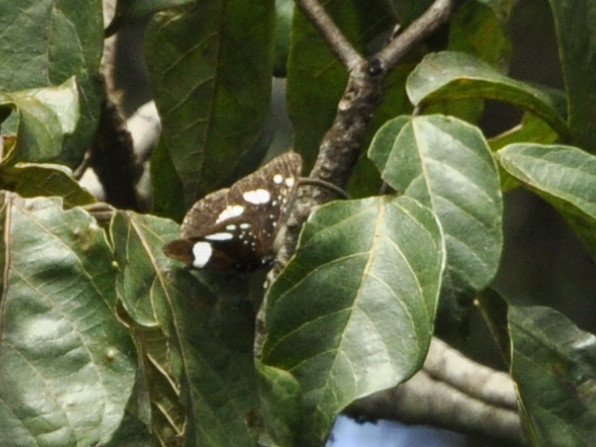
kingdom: Animalia
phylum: Arthropoda
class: Insecta
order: Lepidoptera
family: Nymphalidae
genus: Neptis
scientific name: Neptis swynnertoni
